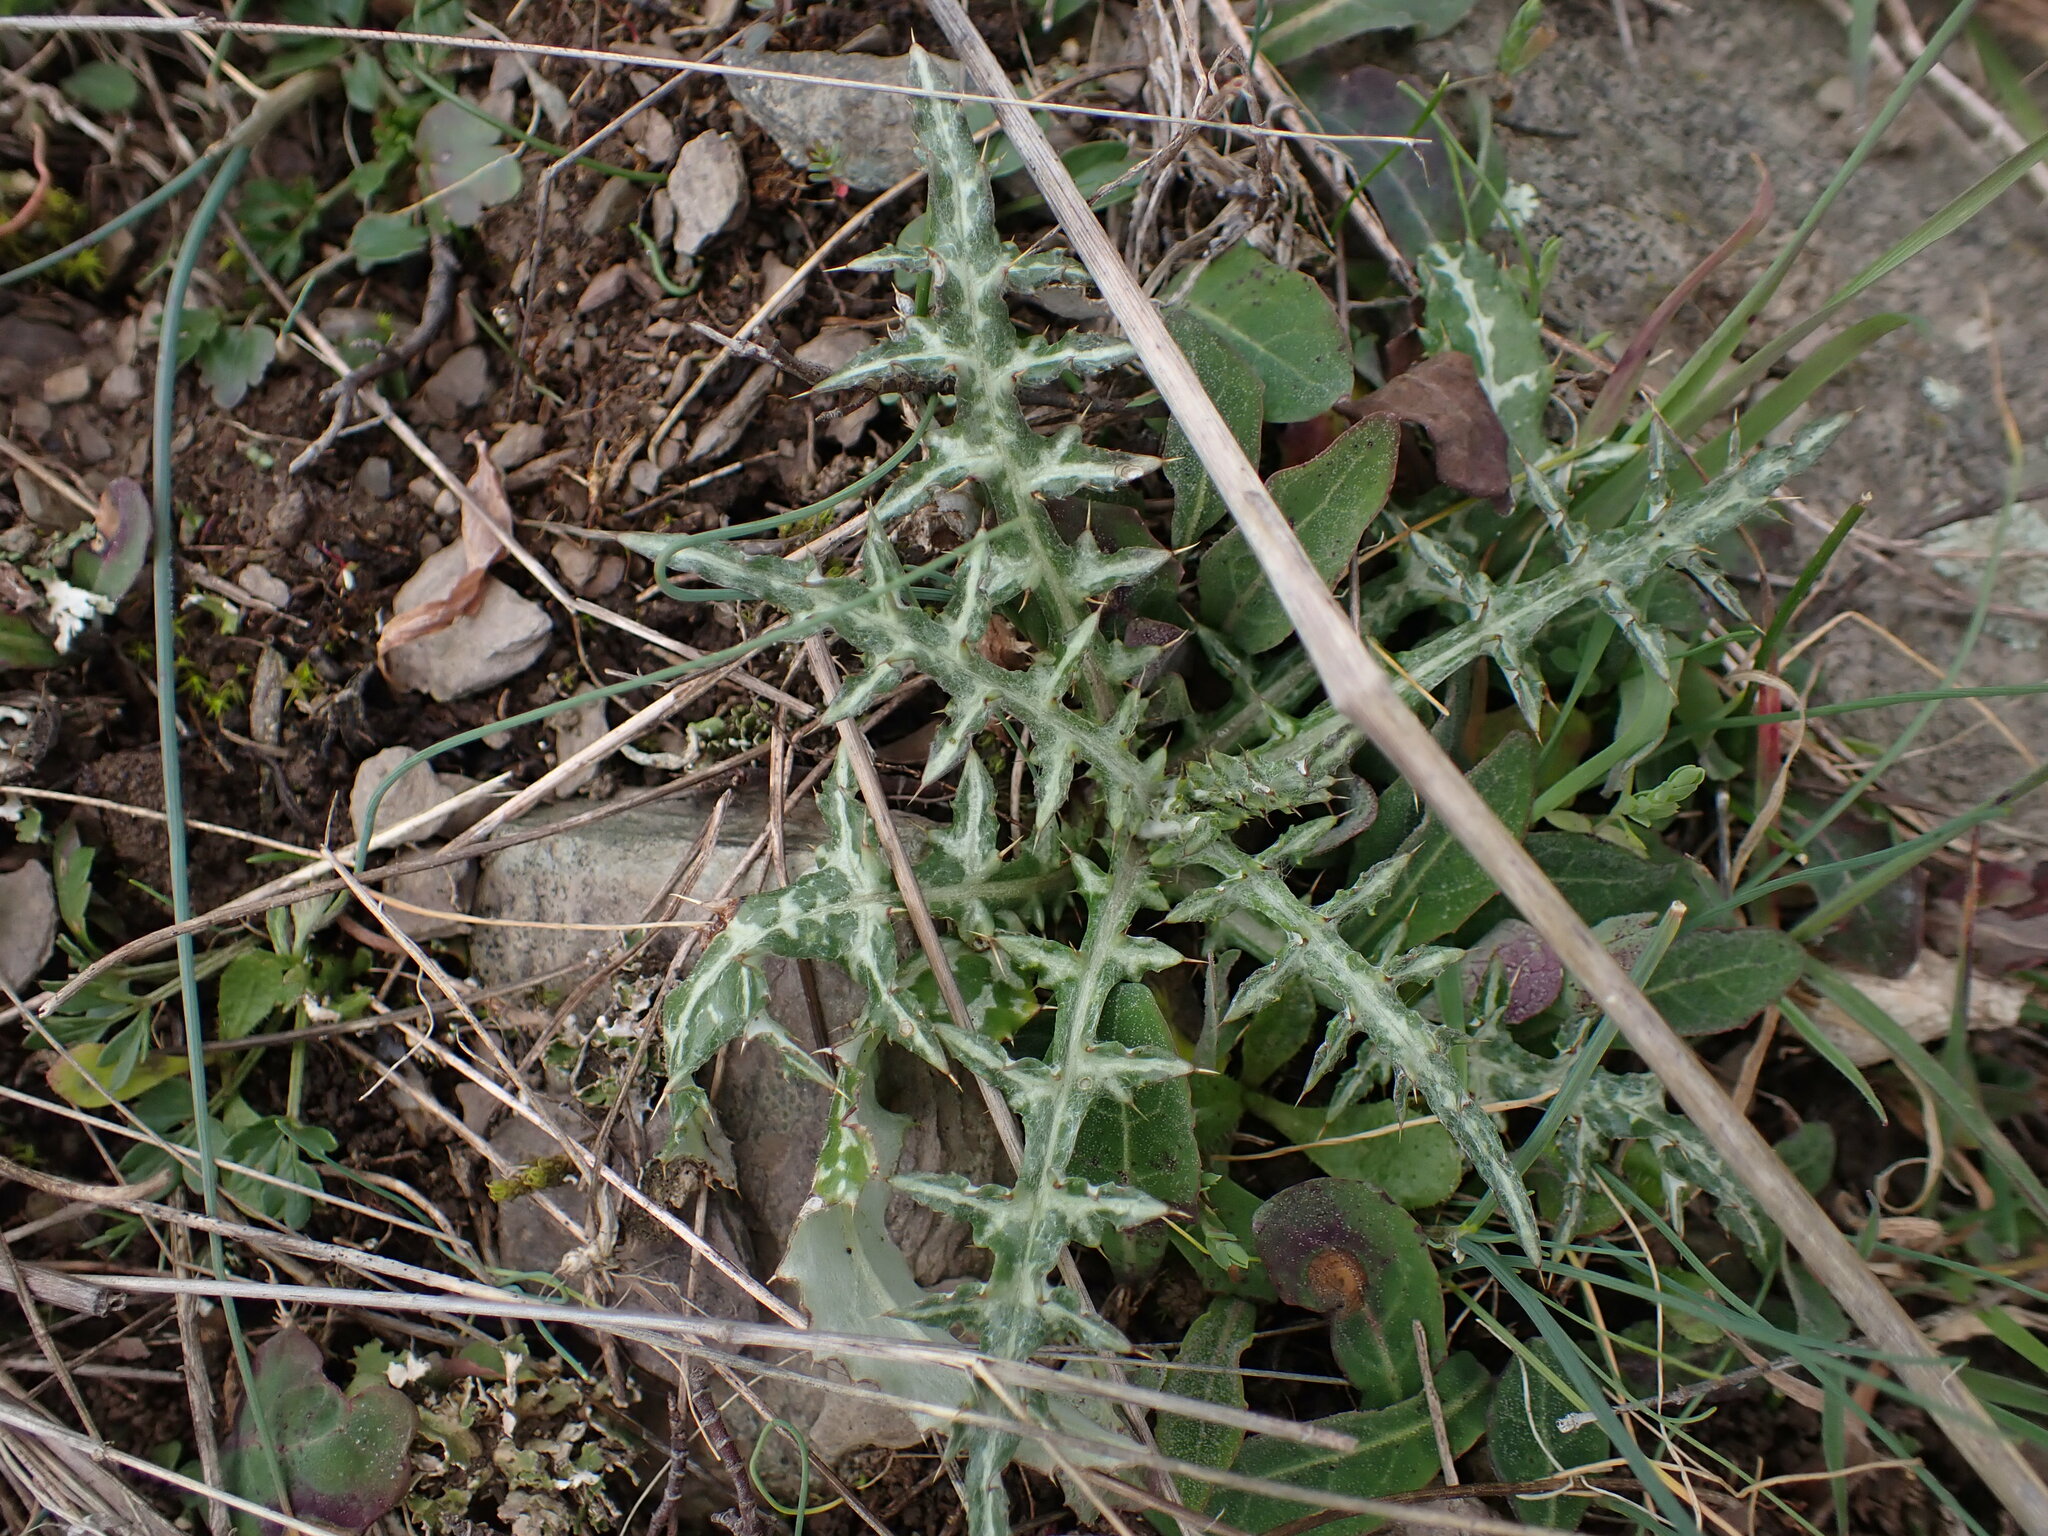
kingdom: Plantae
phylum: Tracheophyta
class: Magnoliopsida
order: Asterales
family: Asteraceae
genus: Galactites
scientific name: Galactites tomentosa
